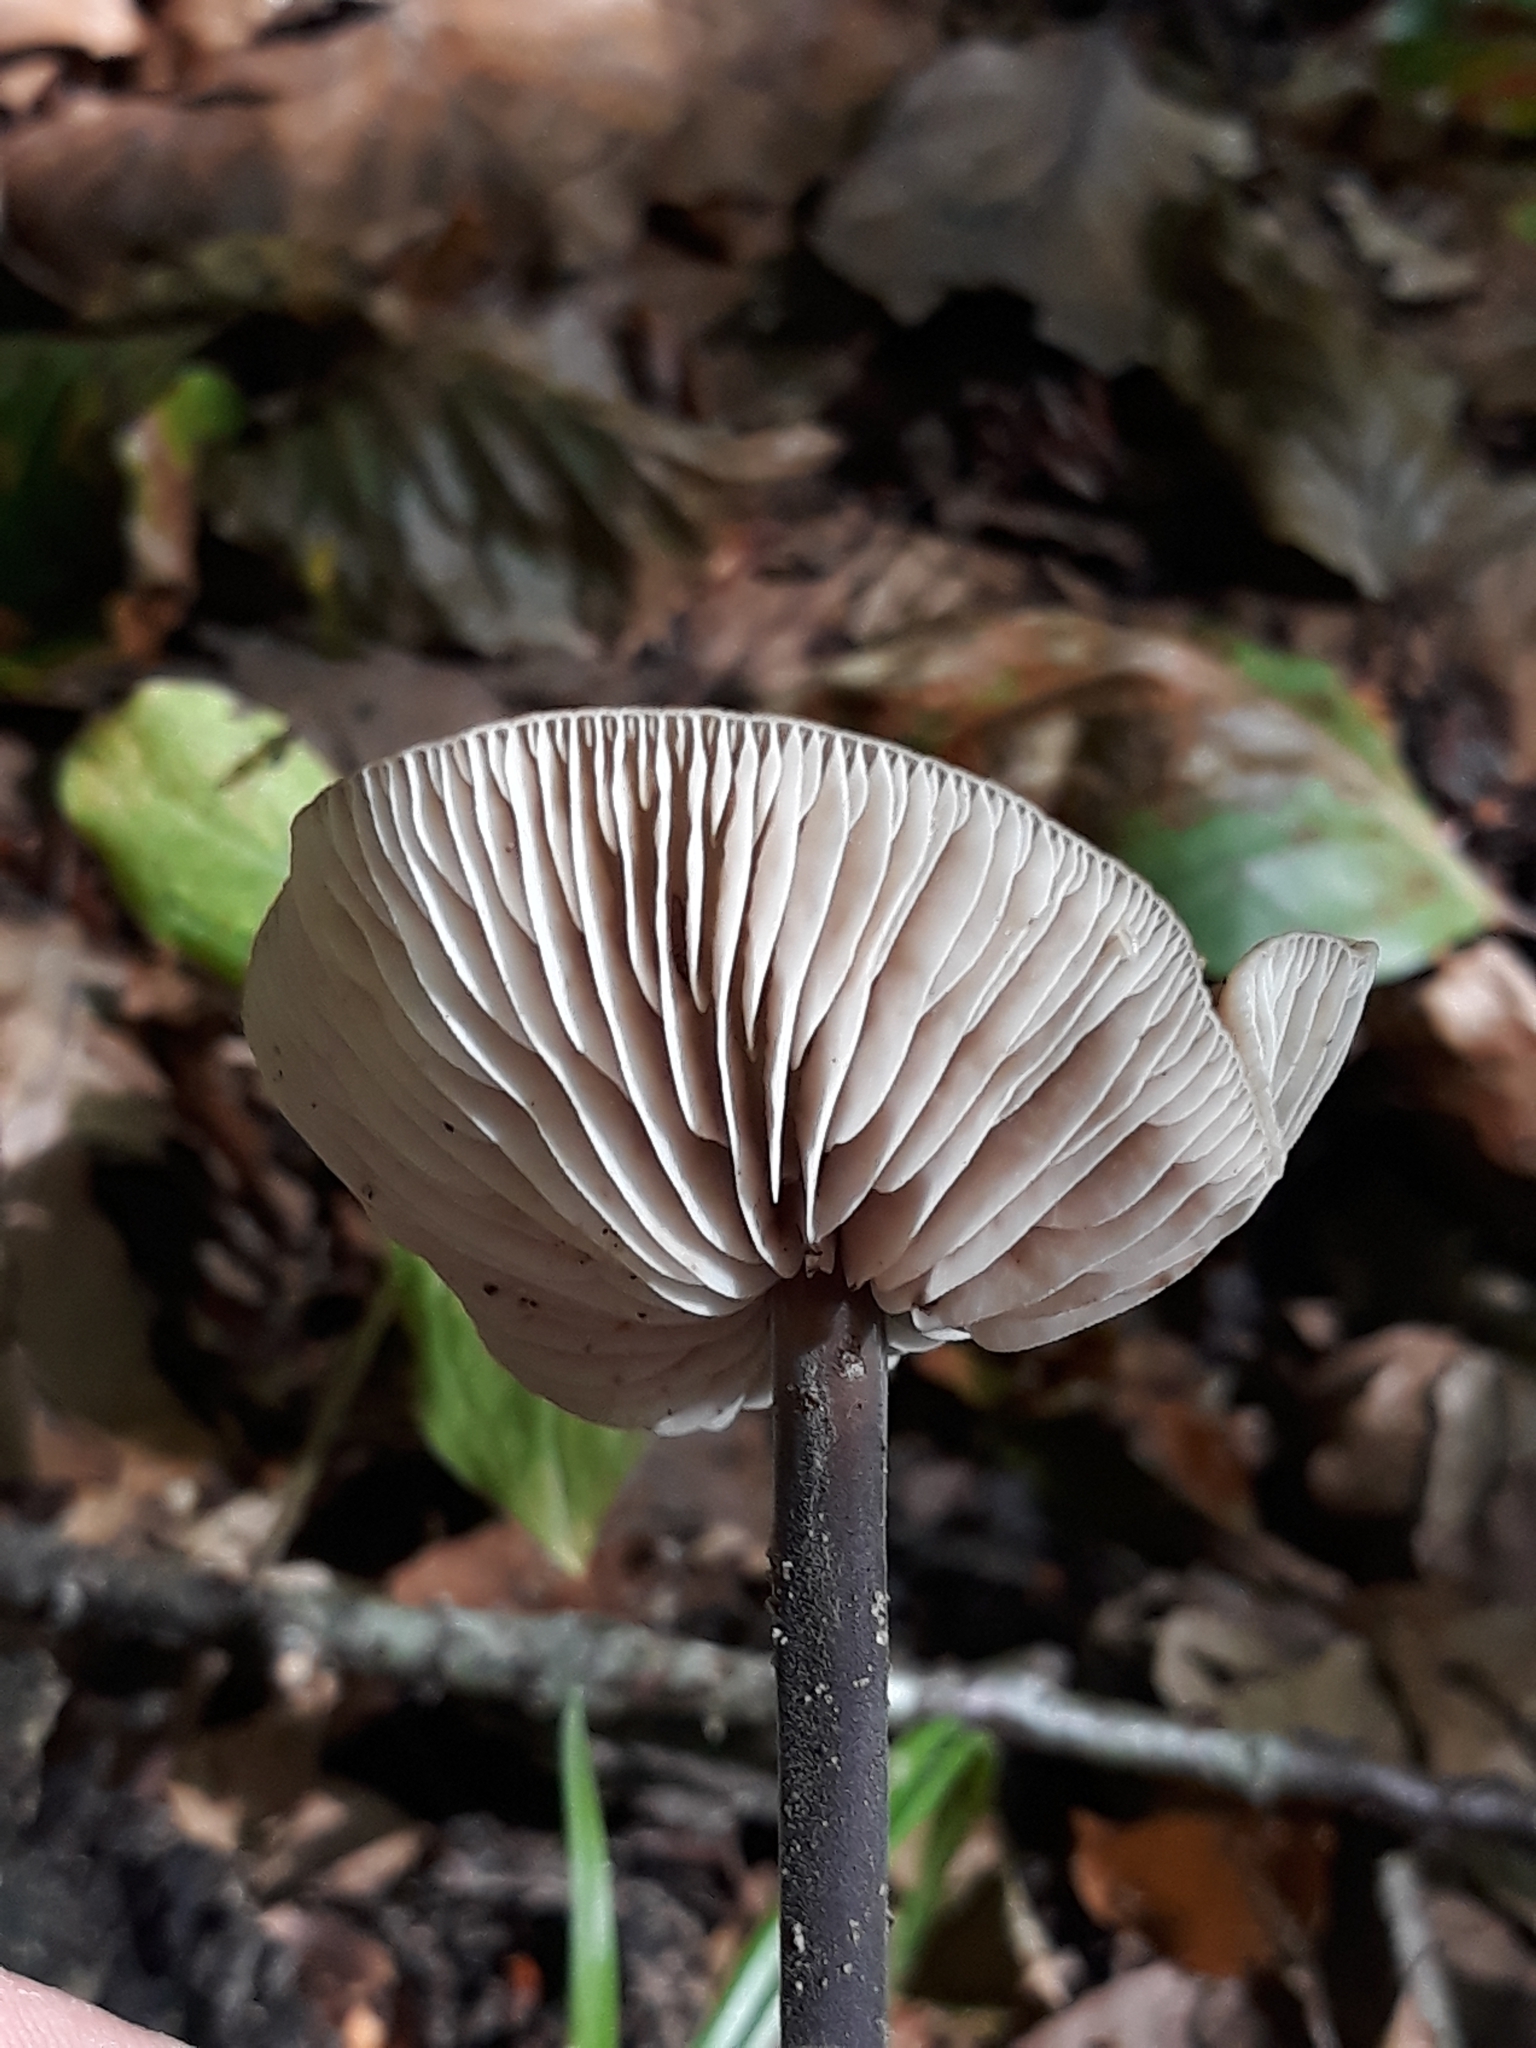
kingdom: Fungi
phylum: Basidiomycota
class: Agaricomycetes
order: Agaricales
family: Omphalotaceae
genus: Mycetinis
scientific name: Mycetinis alliaceus
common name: Garlic parachute
